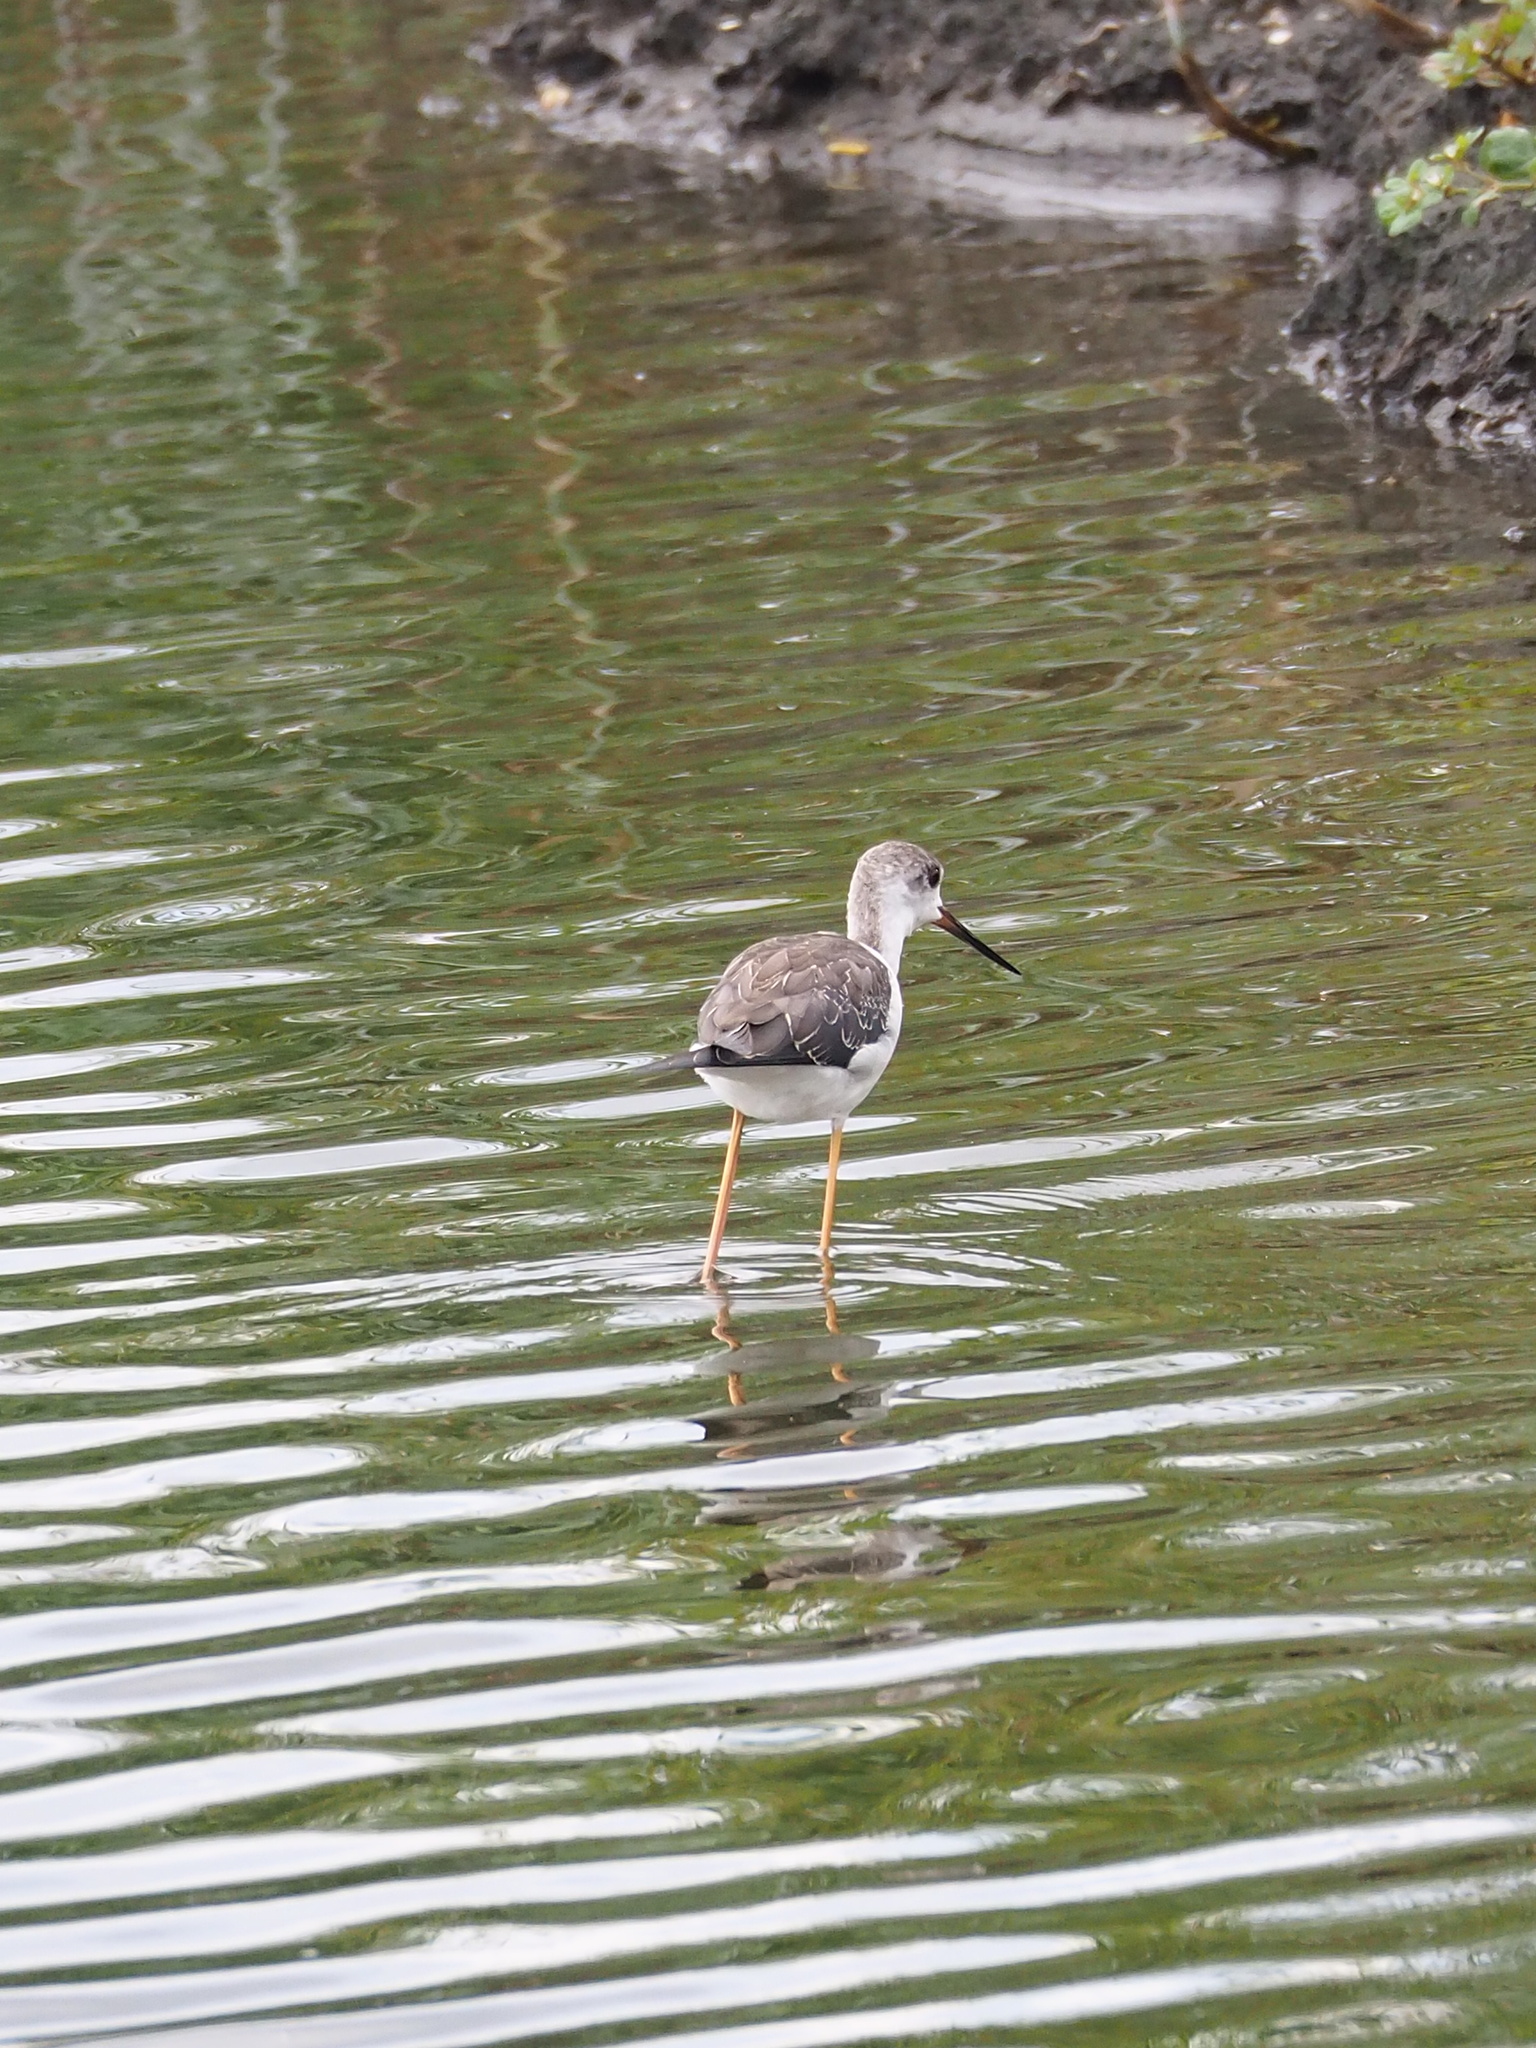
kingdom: Animalia
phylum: Chordata
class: Aves
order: Charadriiformes
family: Recurvirostridae
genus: Himantopus
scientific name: Himantopus himantopus
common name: Black-winged stilt
